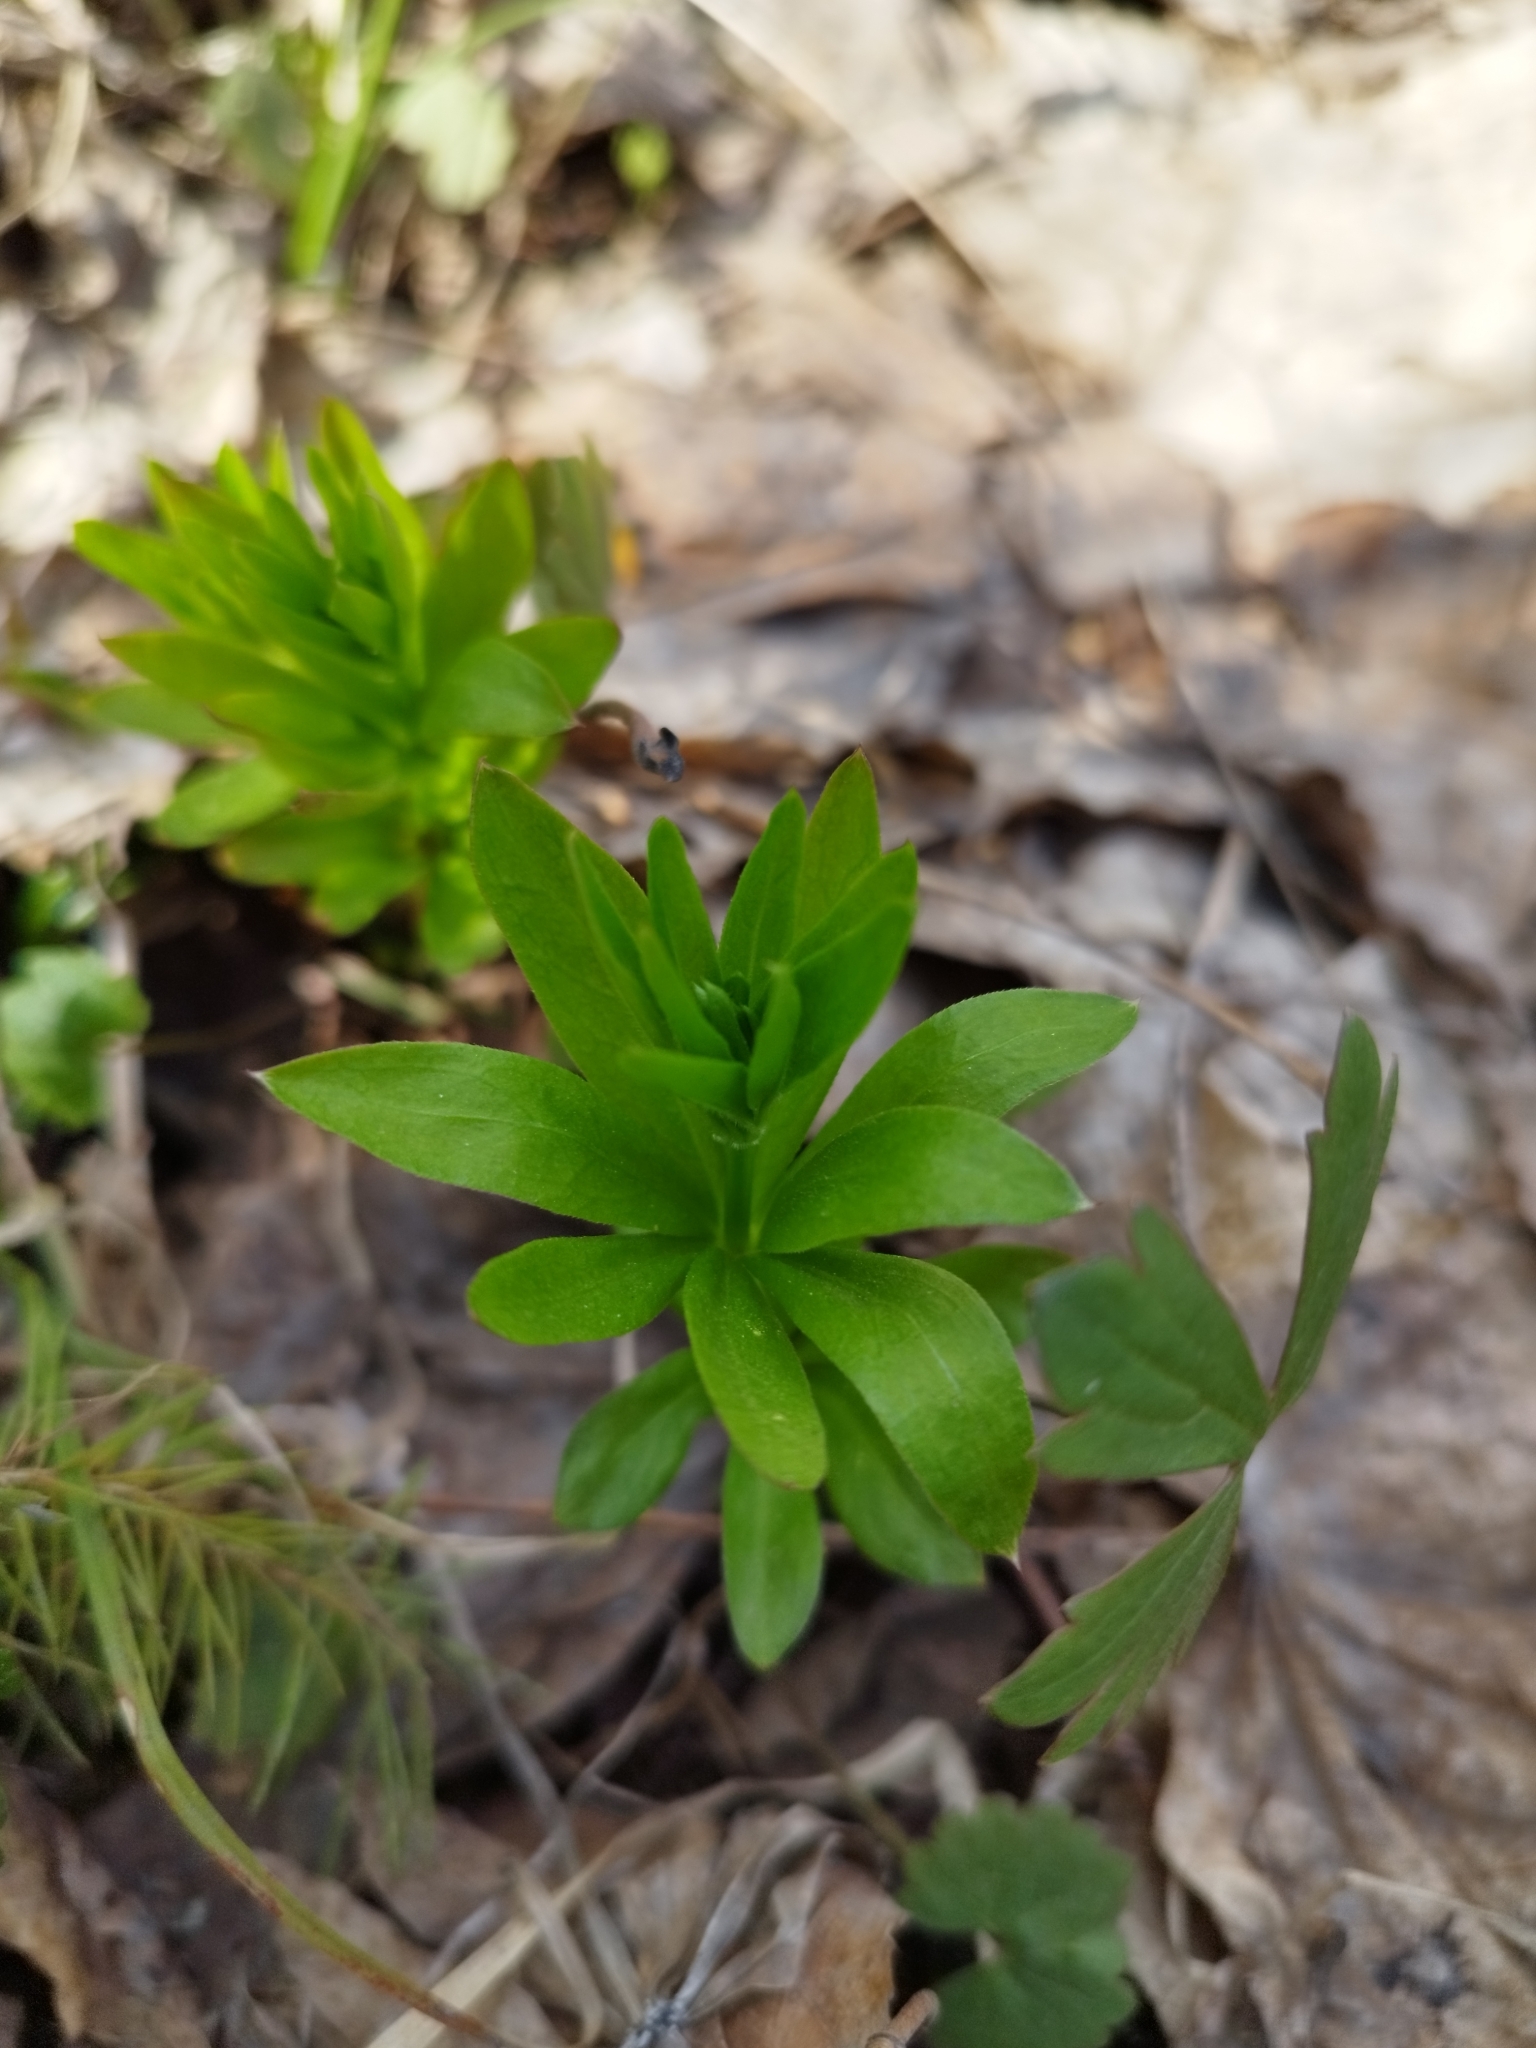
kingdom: Plantae
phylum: Tracheophyta
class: Magnoliopsida
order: Gentianales
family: Rubiaceae
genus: Galium
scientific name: Galium odoratum
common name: Sweet woodruff
